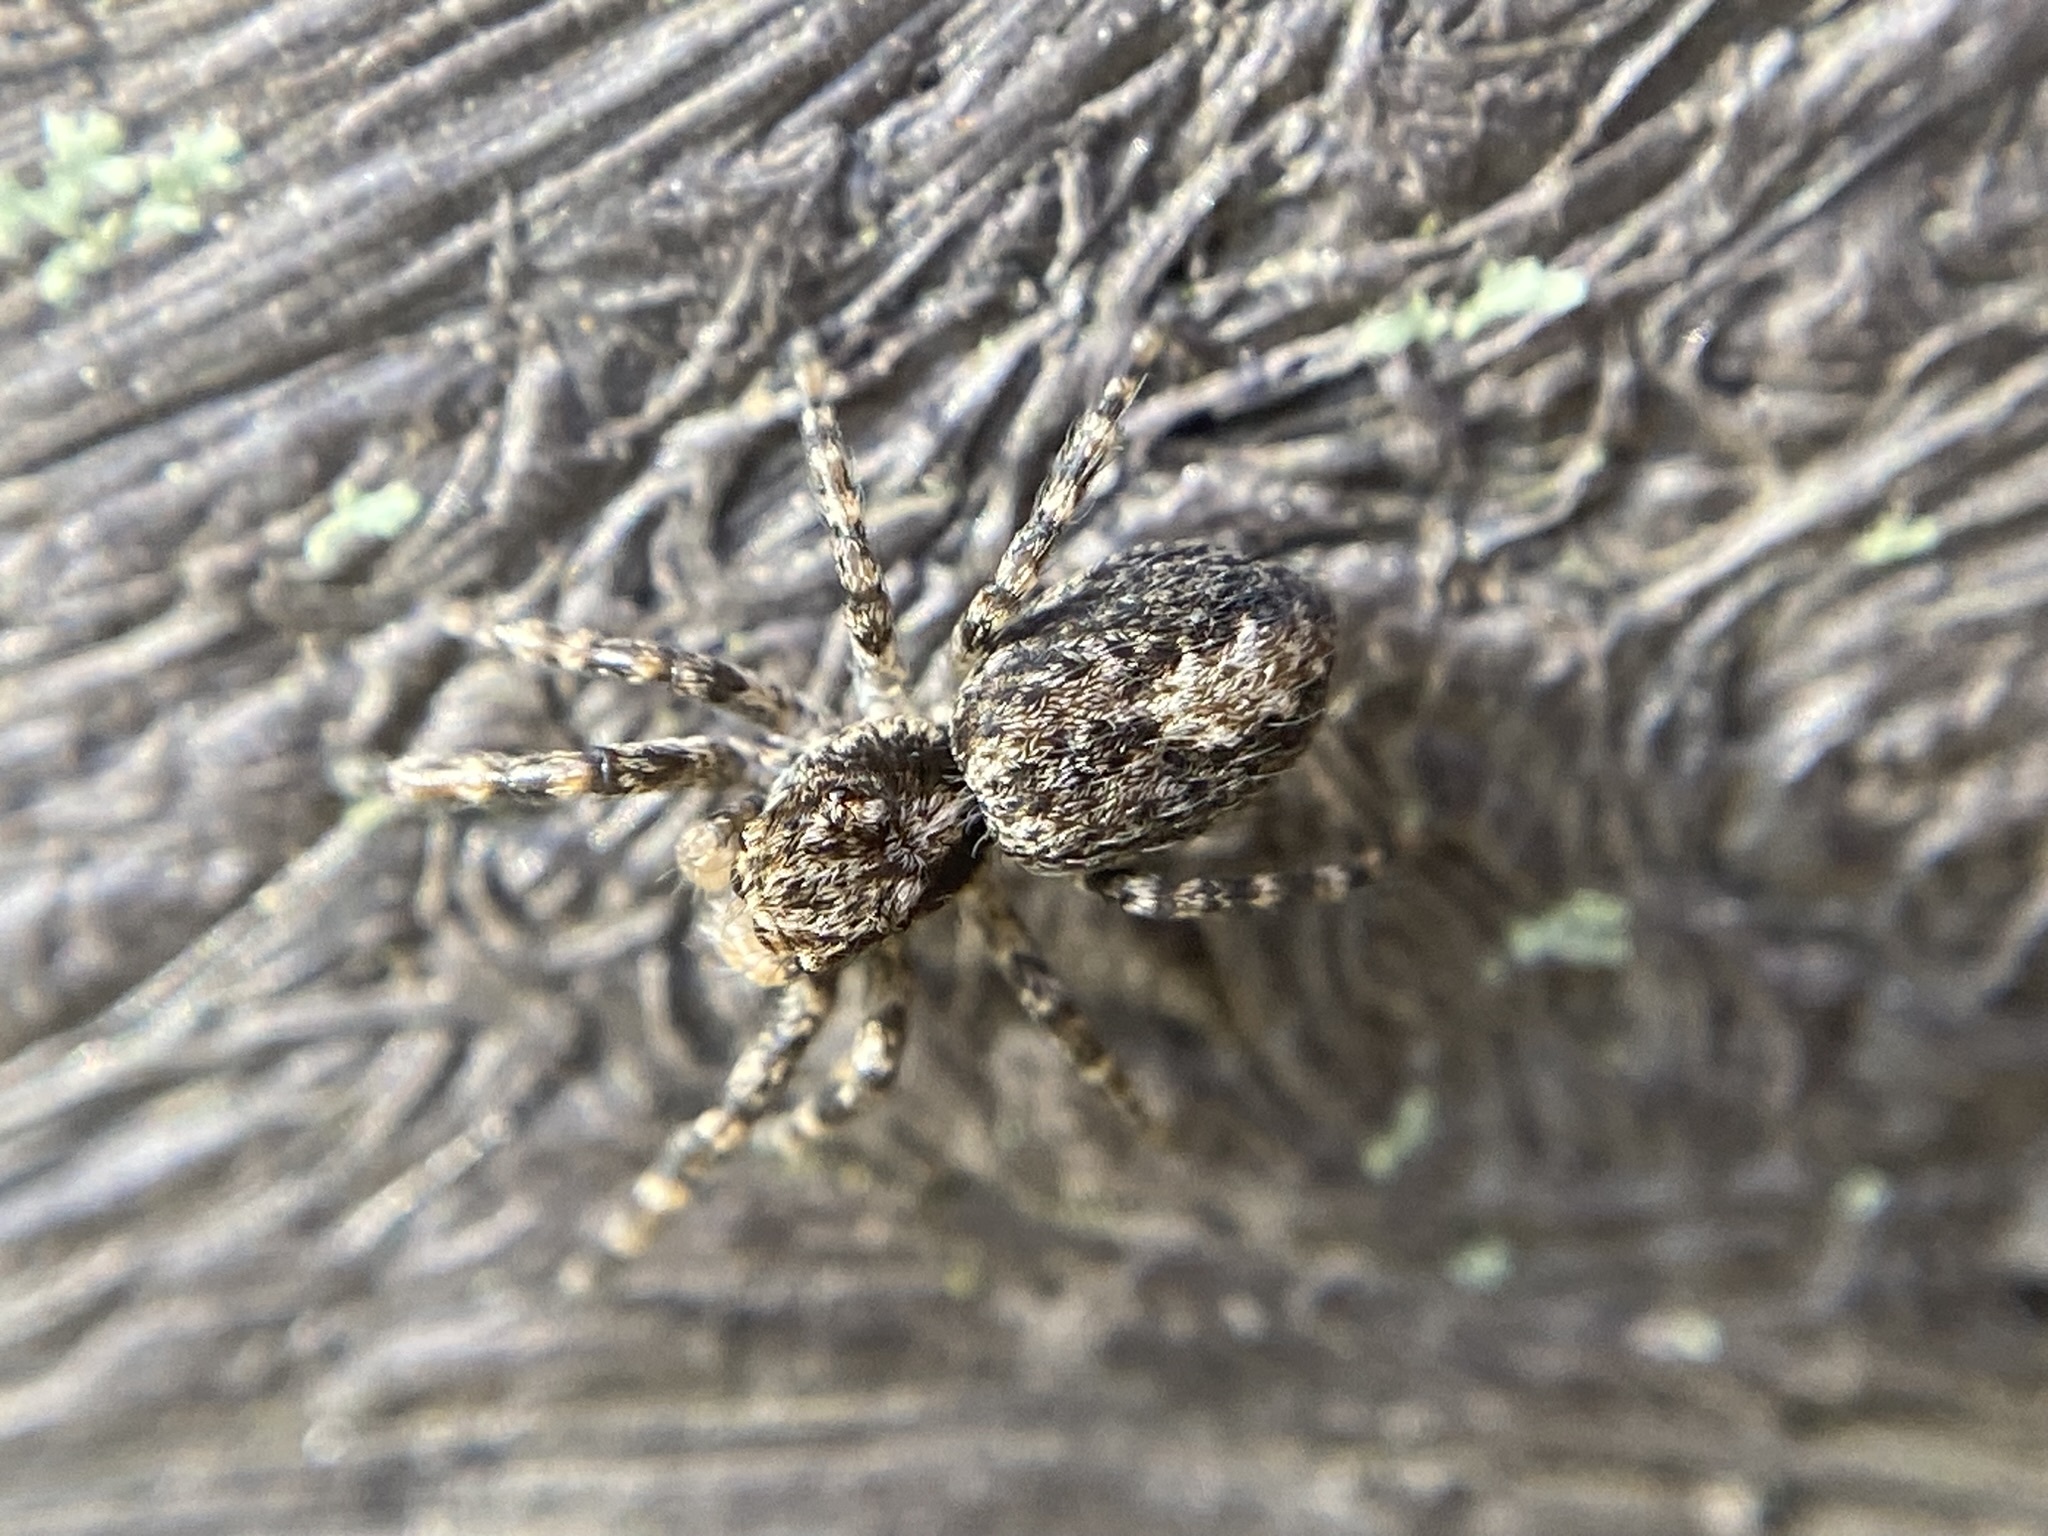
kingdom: Animalia
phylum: Arthropoda
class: Arachnida
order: Araneae
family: Salticidae
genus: Titanattus
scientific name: Titanattus andinus
